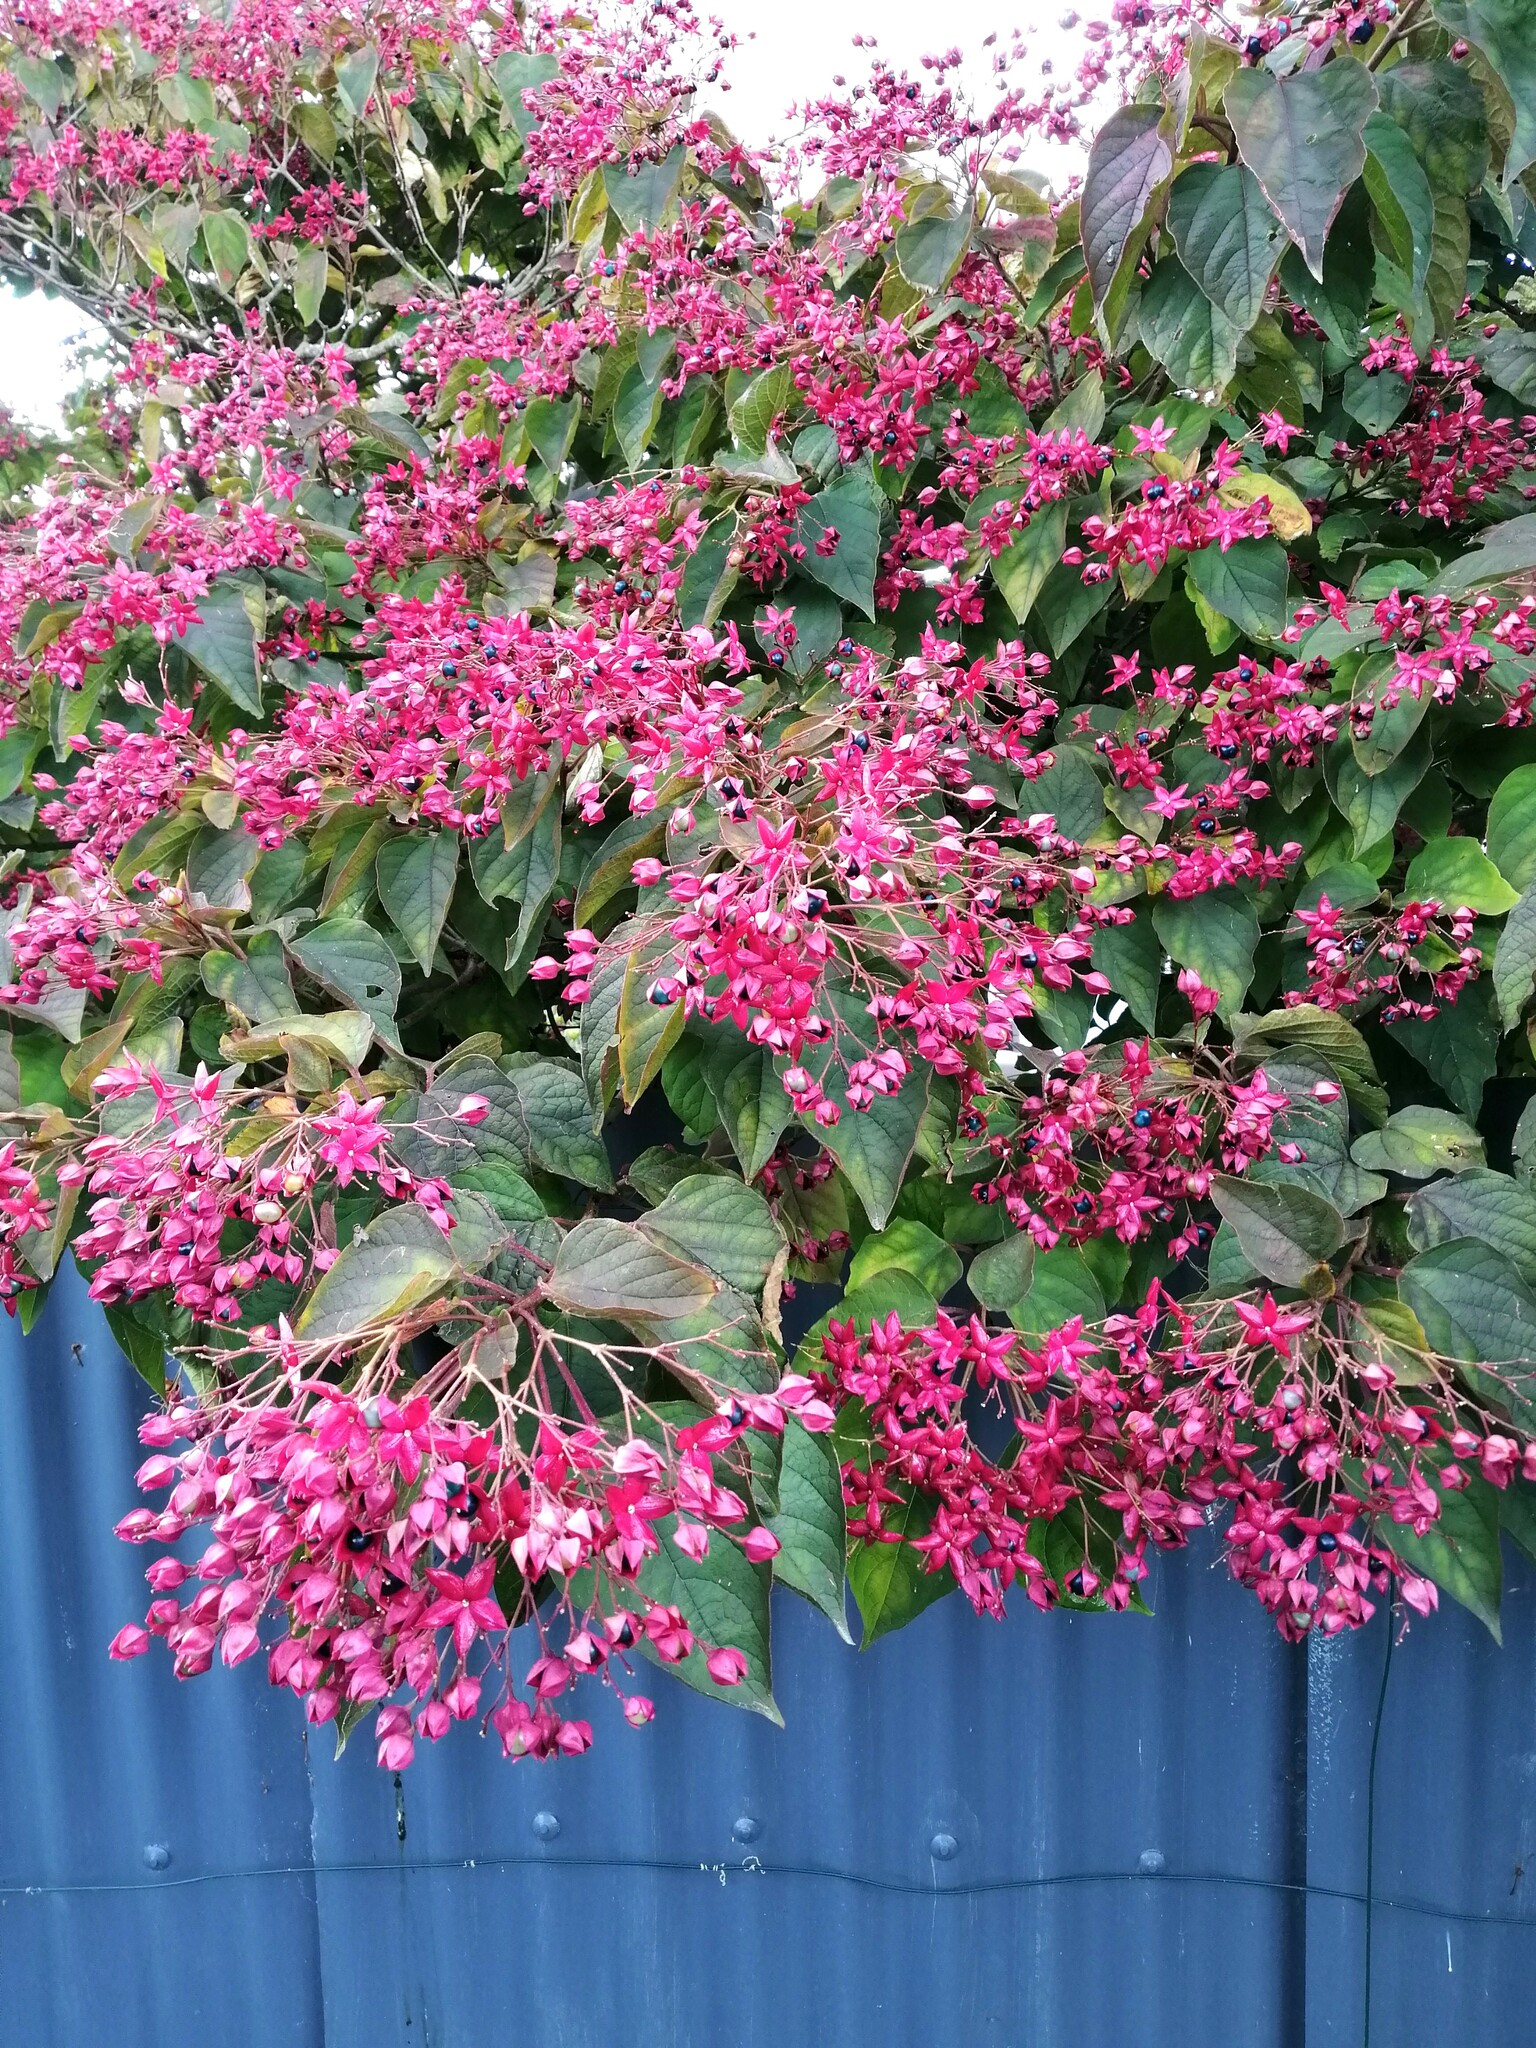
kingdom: Plantae
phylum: Tracheophyta
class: Magnoliopsida
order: Lamiales
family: Lamiaceae
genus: Clerodendrum
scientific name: Clerodendrum trichotomum
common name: Harlequin glorybower
